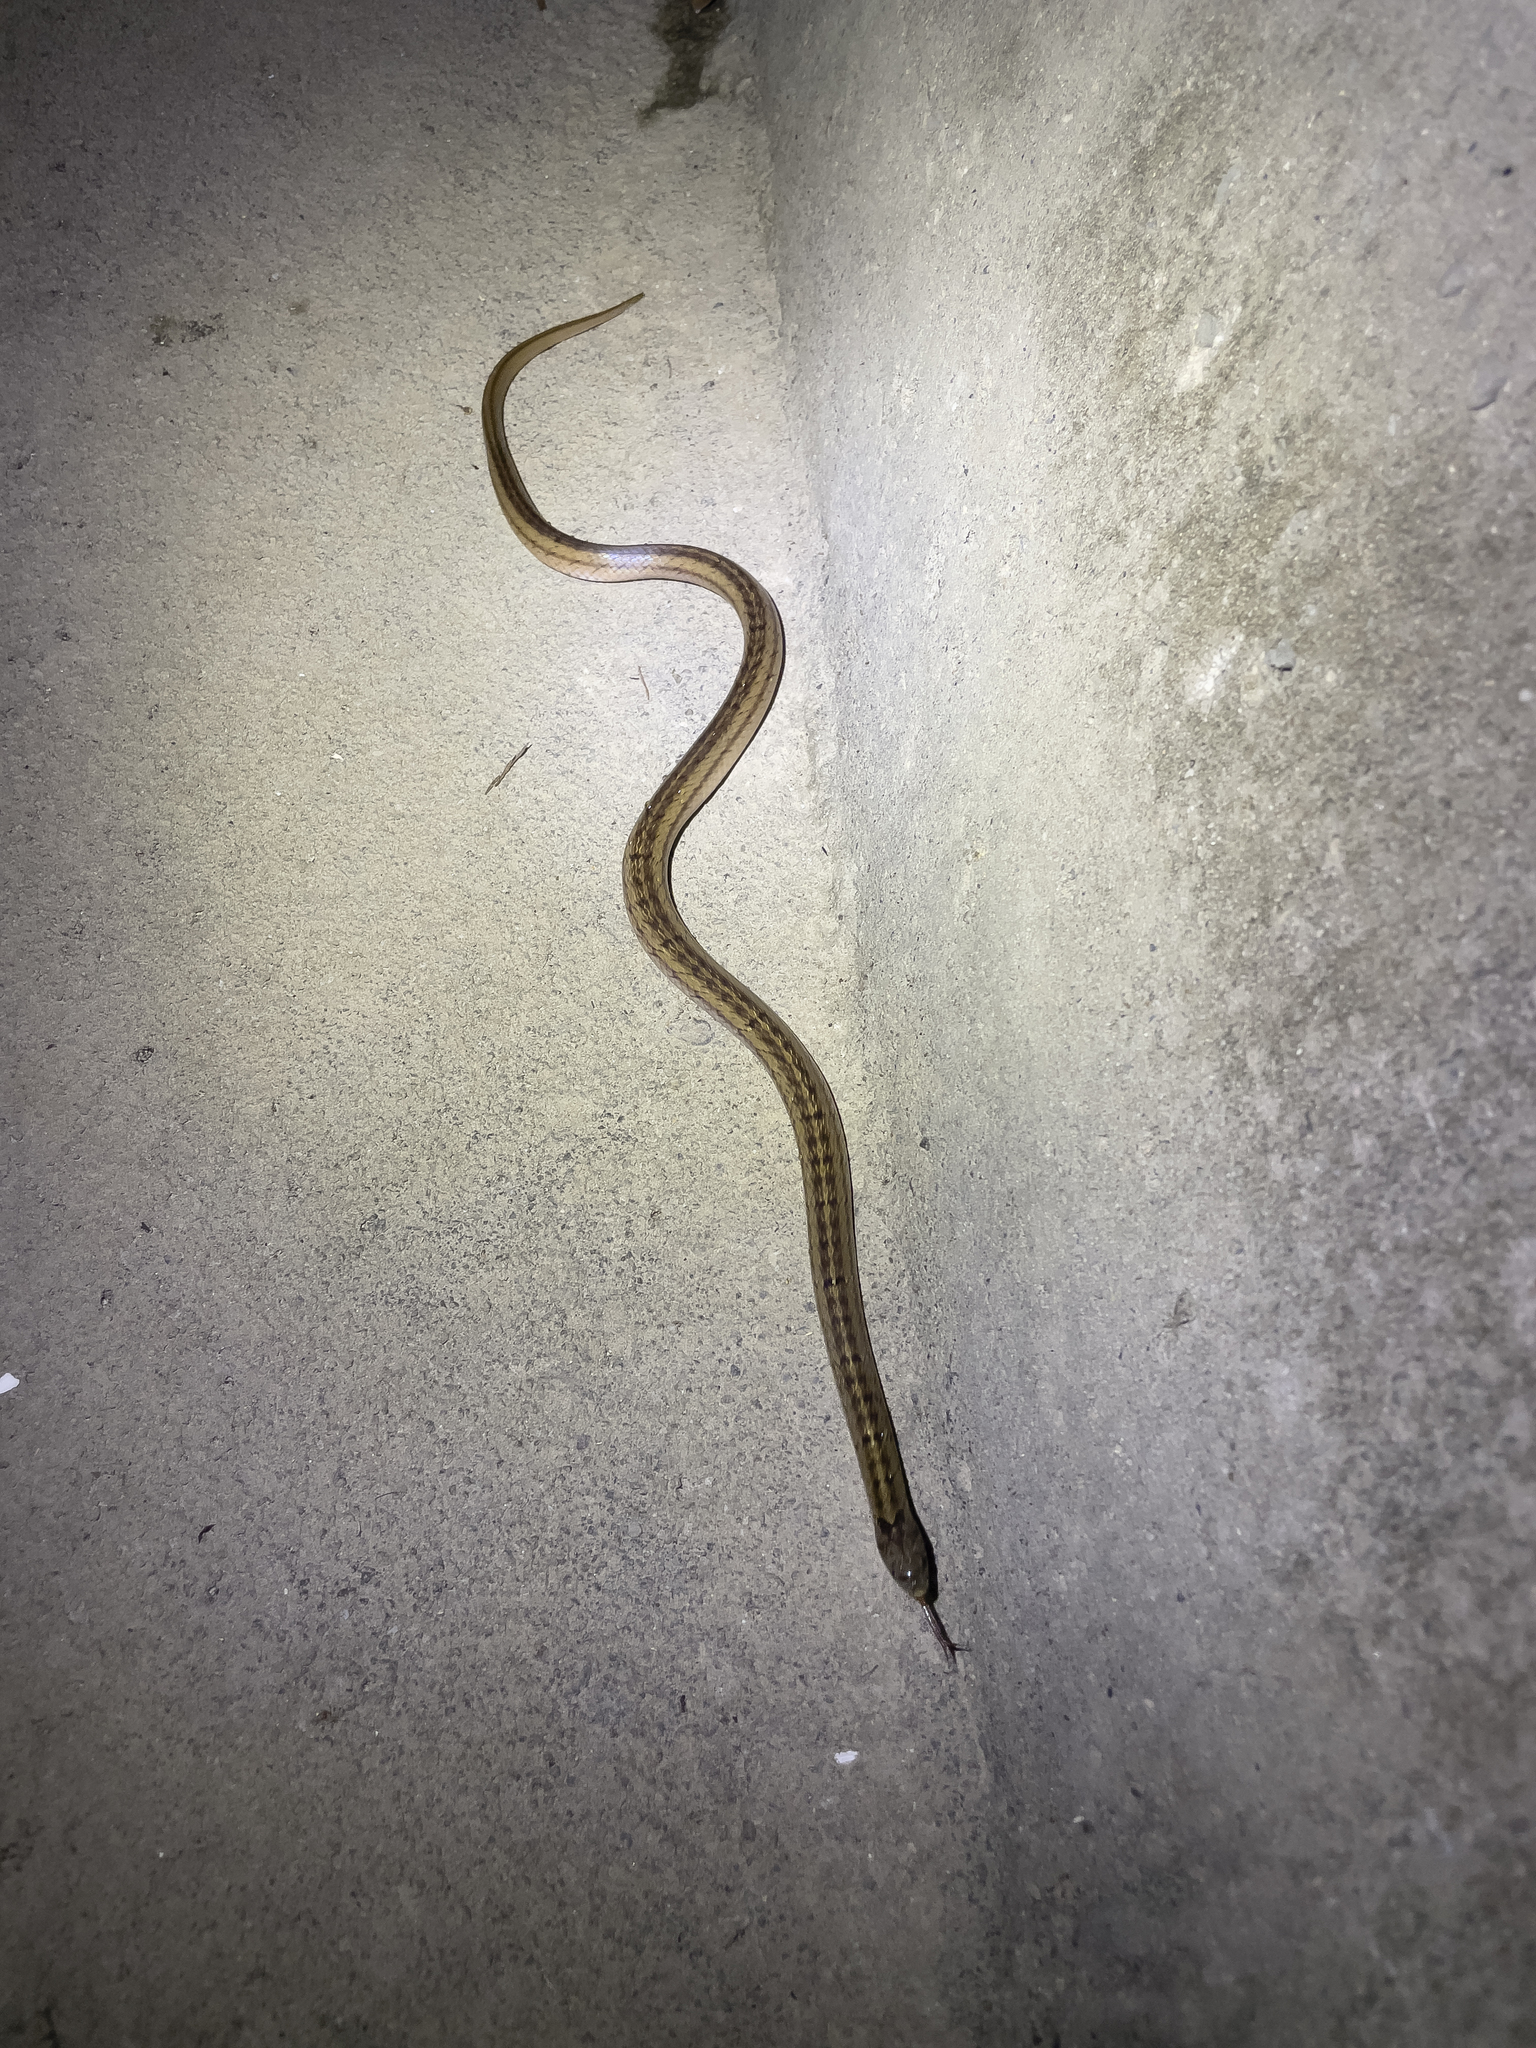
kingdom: Animalia
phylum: Chordata
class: Squamata
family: Colubridae
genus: Oligodon
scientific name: Oligodon formosanus
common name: Formosa kukri snake
